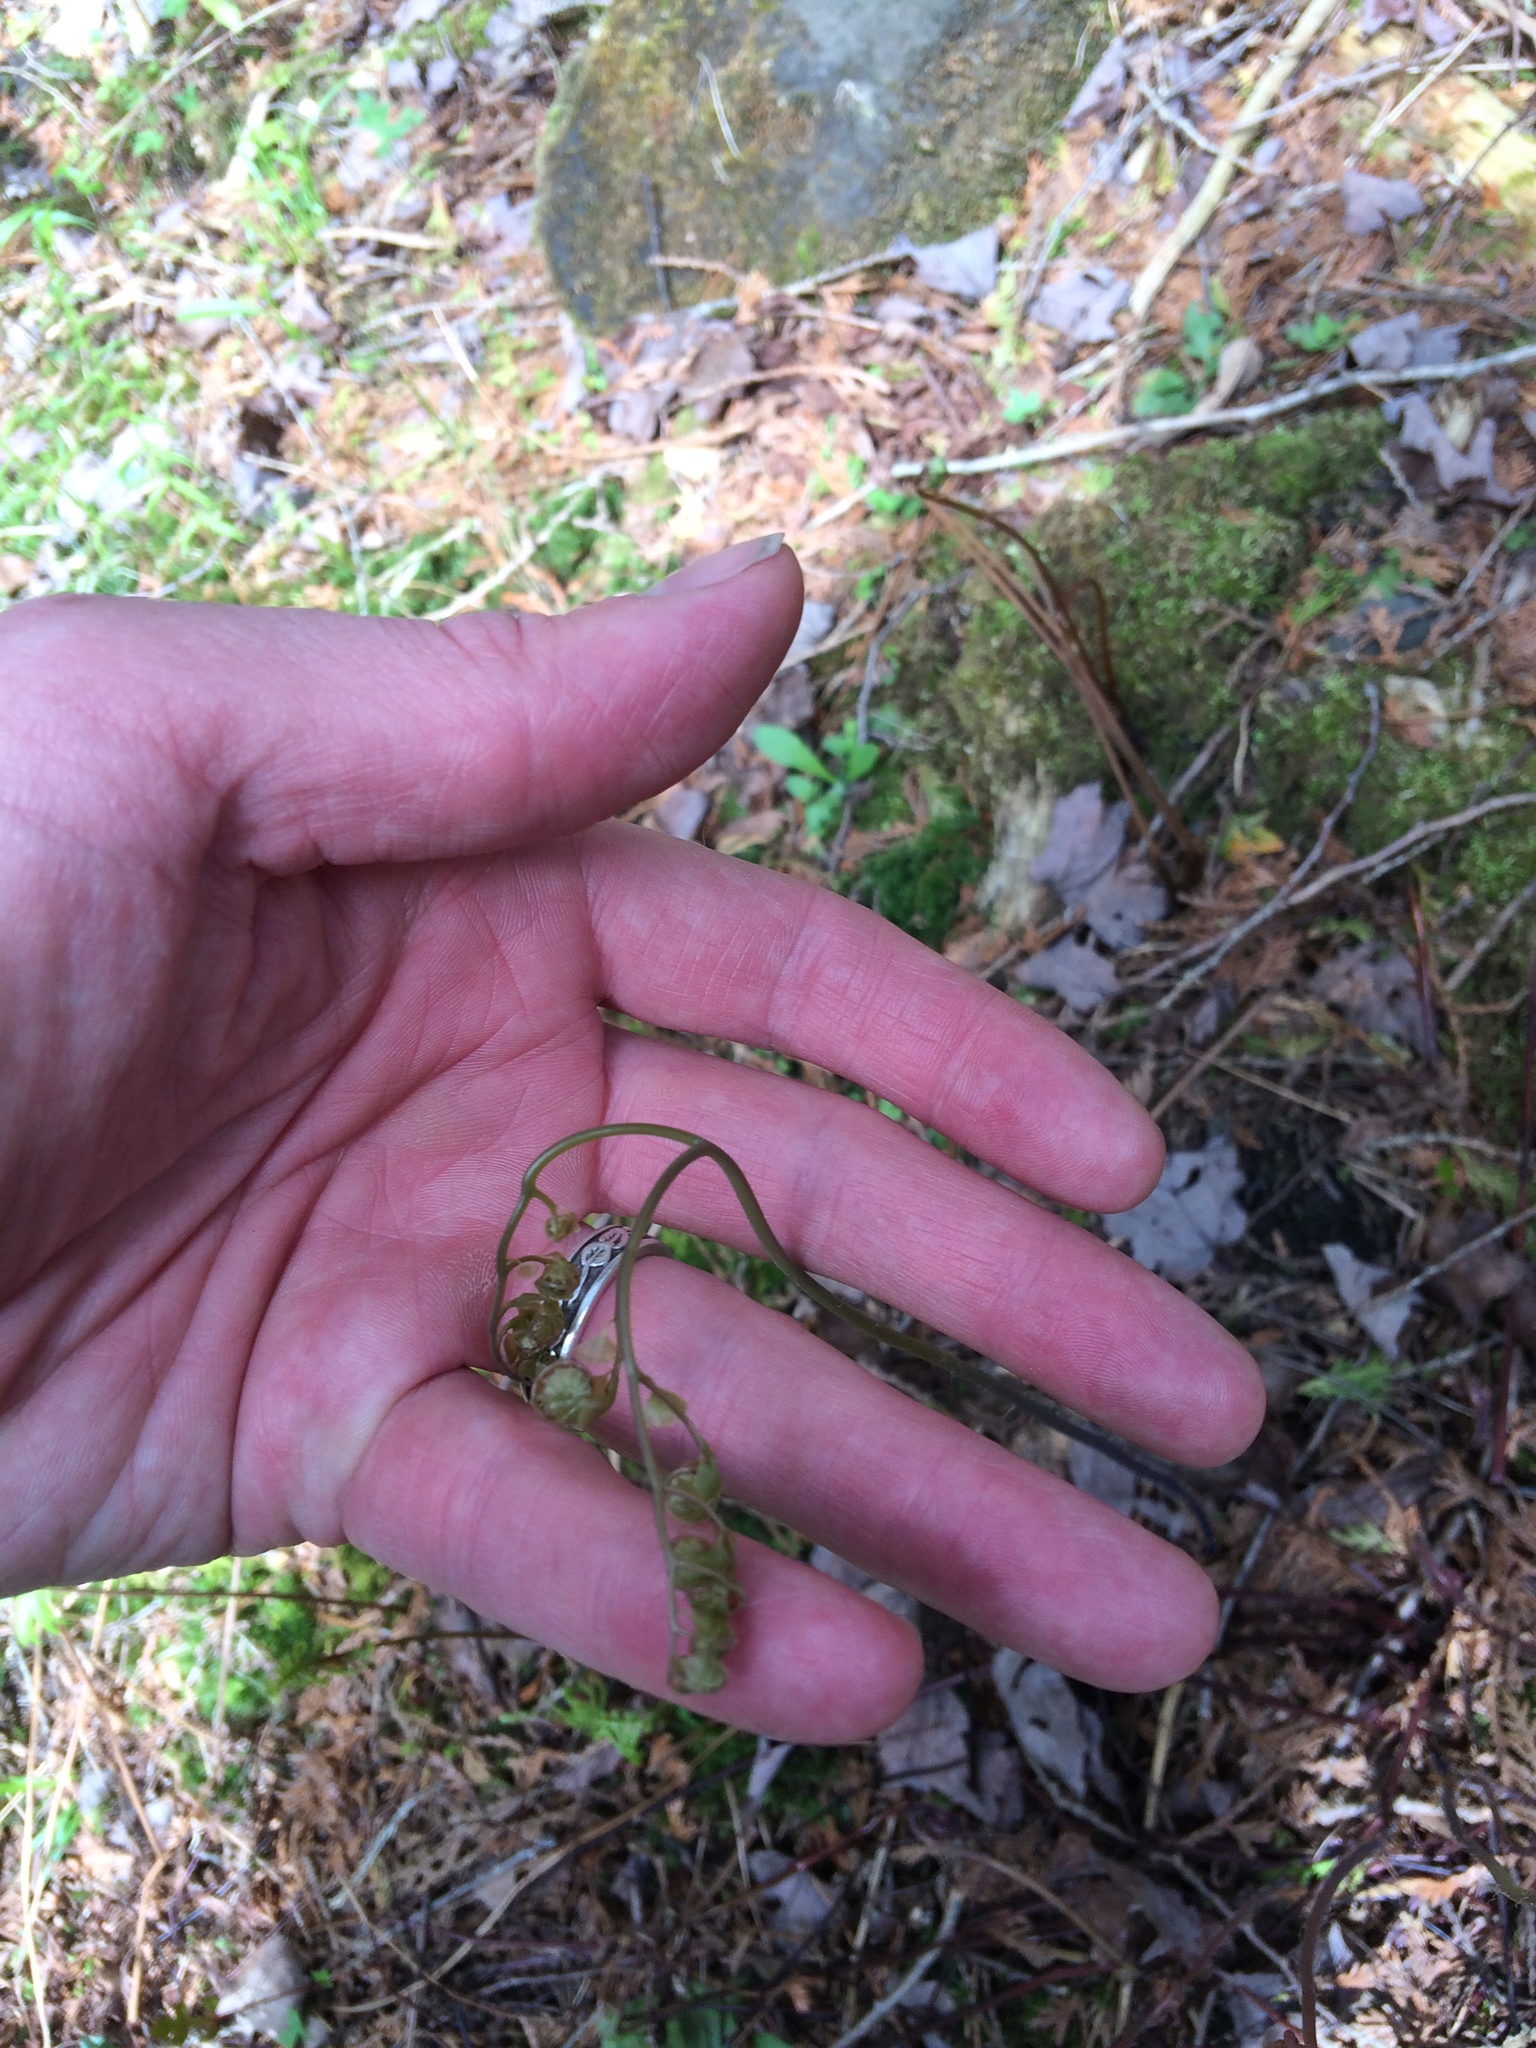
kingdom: Plantae
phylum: Tracheophyta
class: Polypodiopsida
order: Polypodiales
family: Pteridaceae
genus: Adiantum
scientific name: Adiantum pedatum
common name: Five-finger fern
